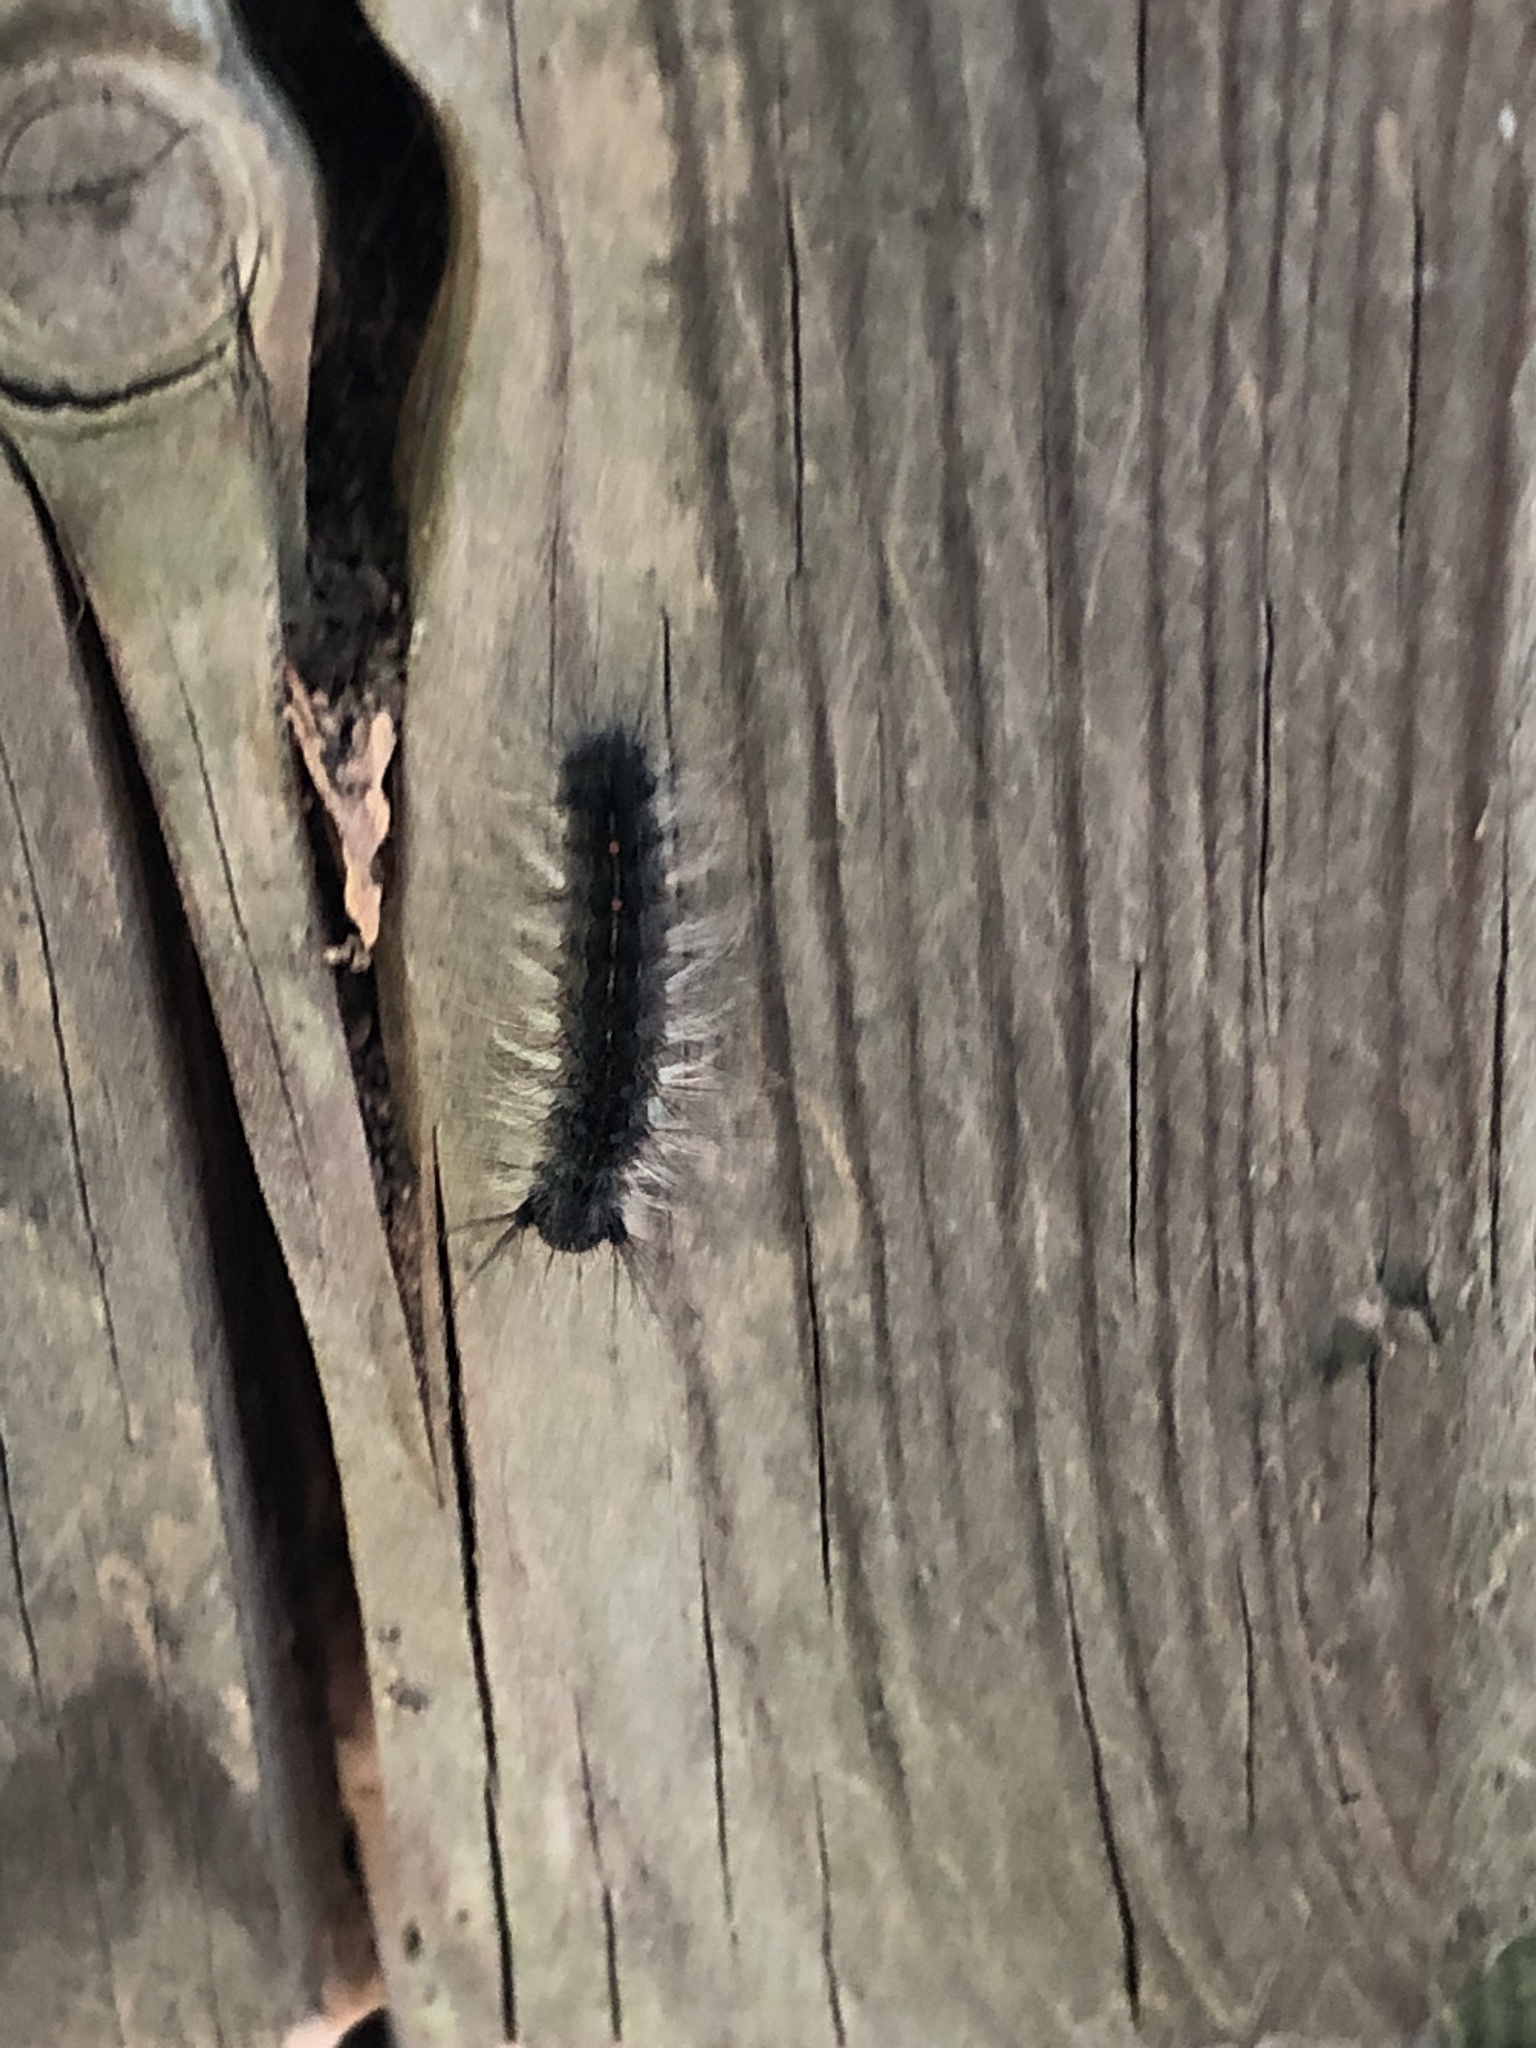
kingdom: Animalia
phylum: Arthropoda
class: Insecta
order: Lepidoptera
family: Erebidae
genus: Lymantria
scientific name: Lymantria dispar
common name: Gypsy moth
